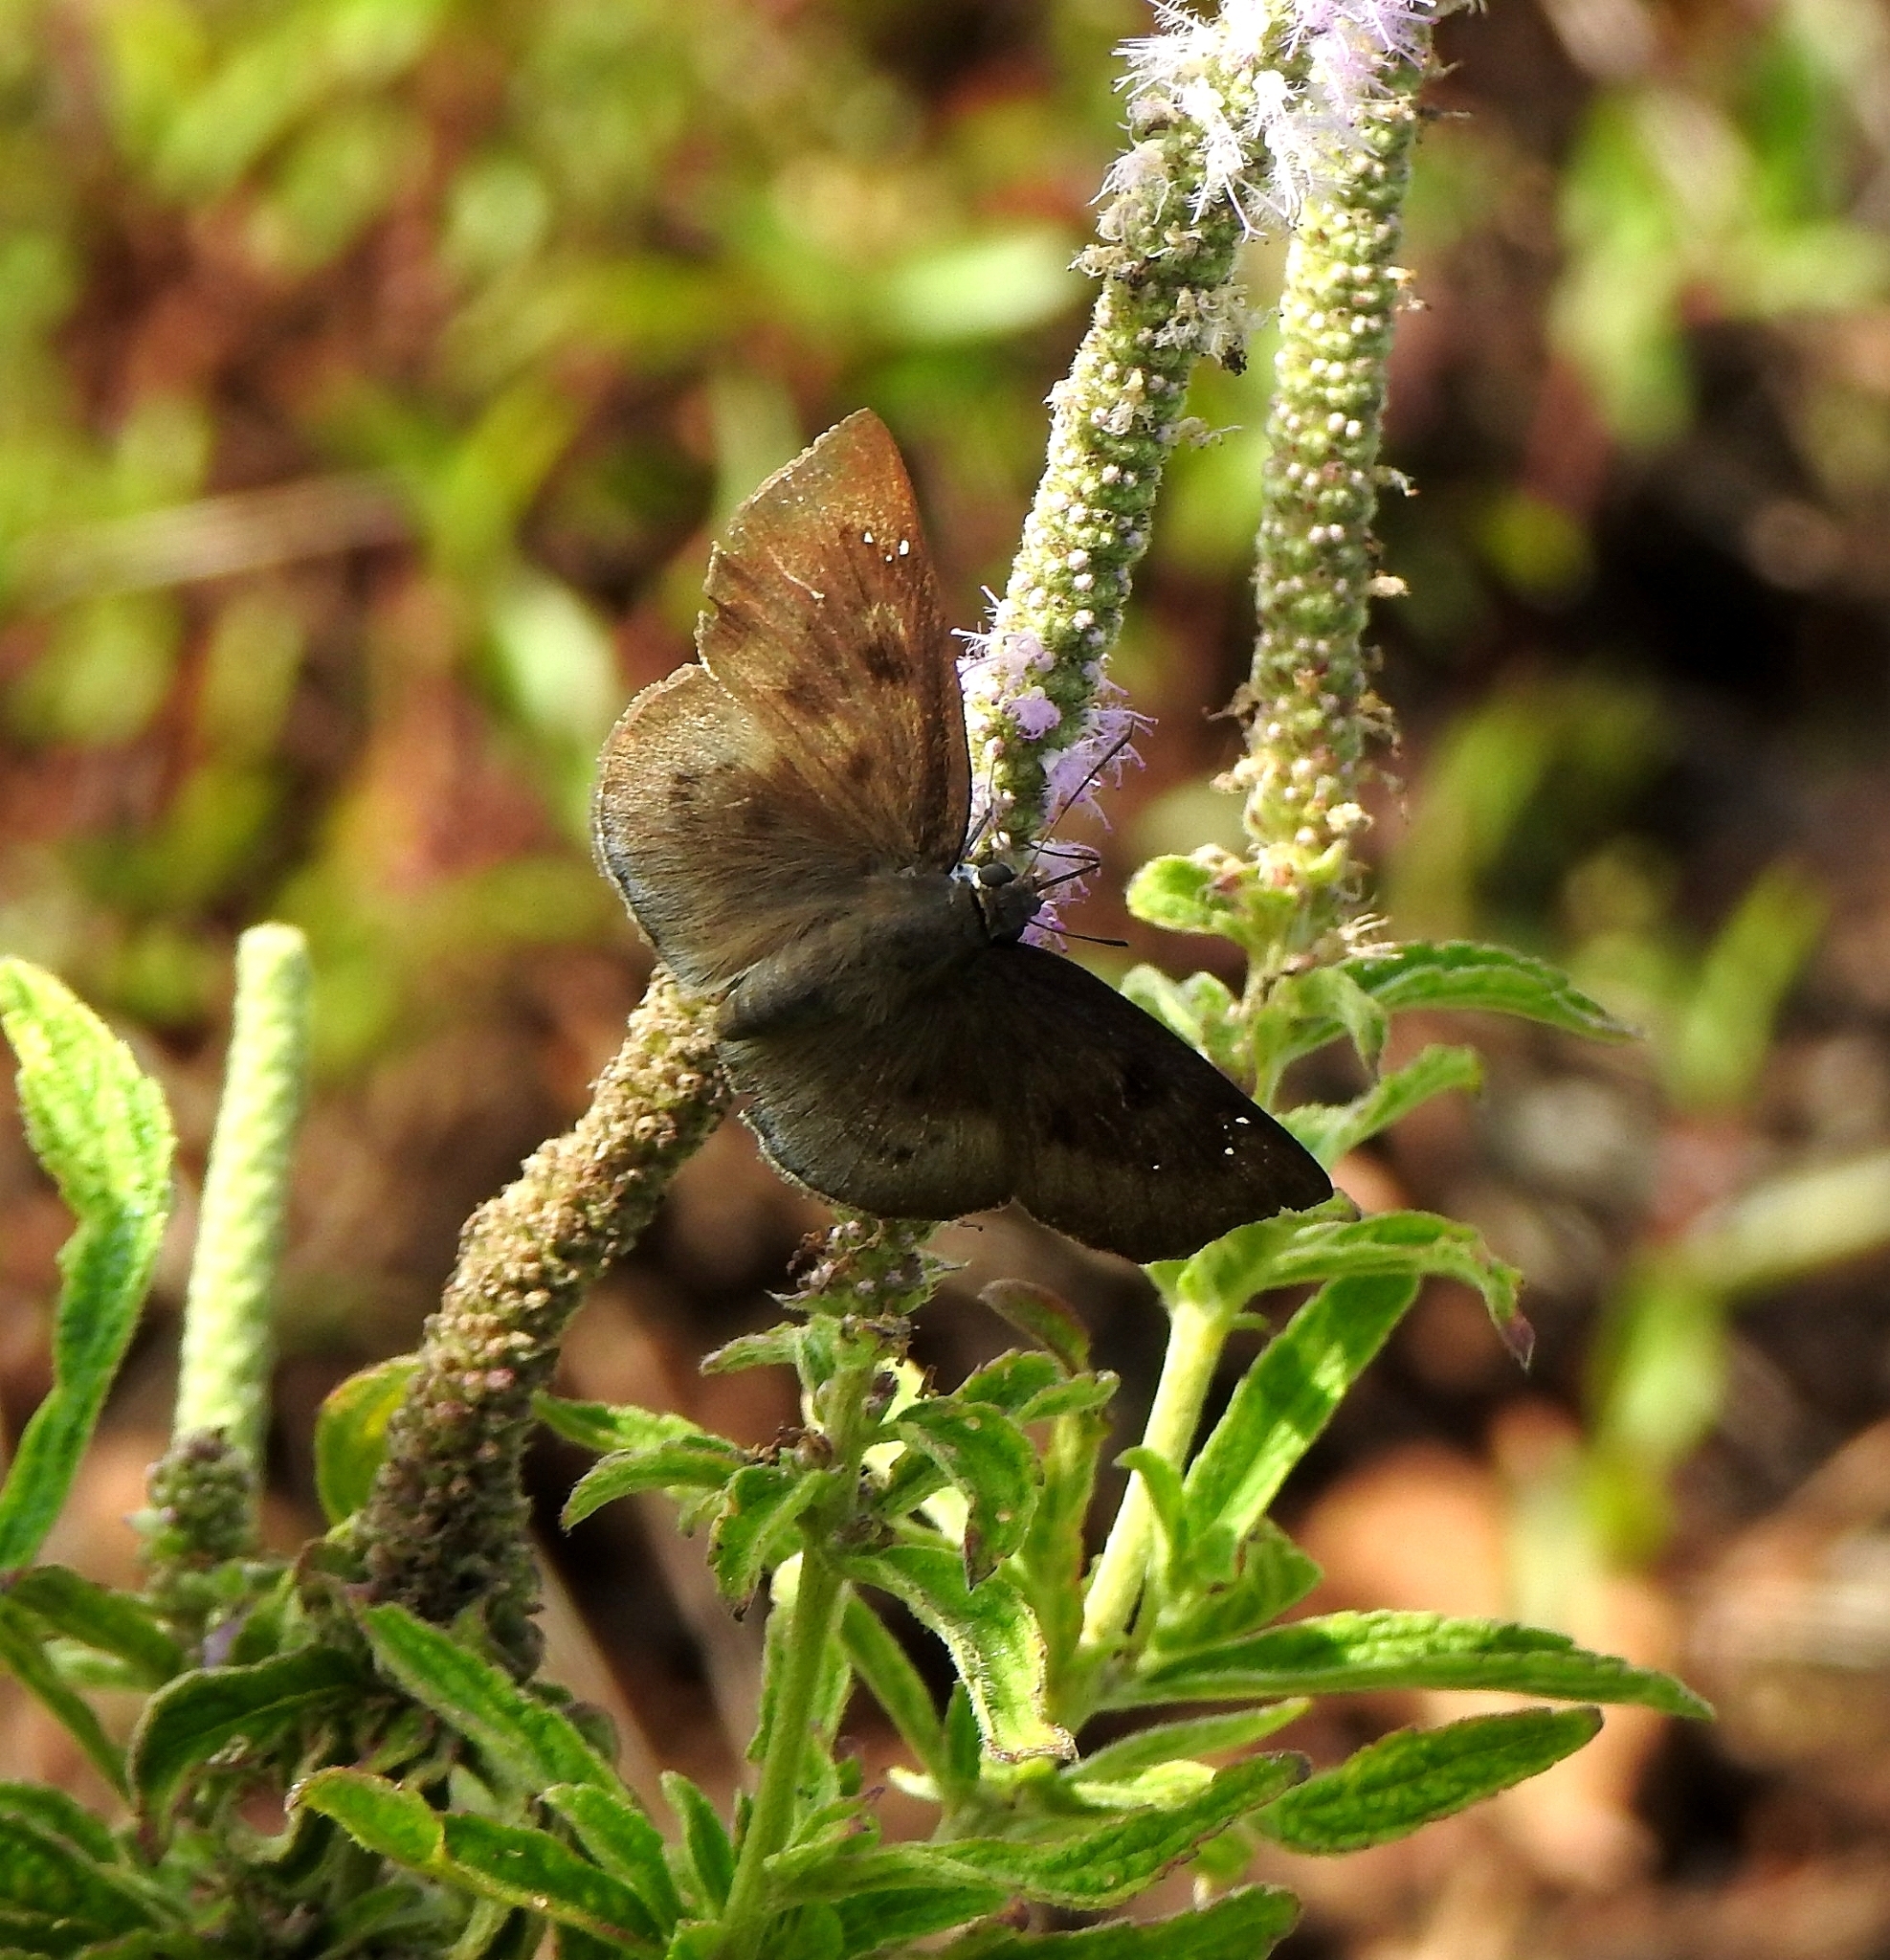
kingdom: Animalia
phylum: Arthropoda
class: Insecta
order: Lepidoptera
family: Hesperiidae
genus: Tagiades
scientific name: Tagiades gana
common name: Suffused snow flat
